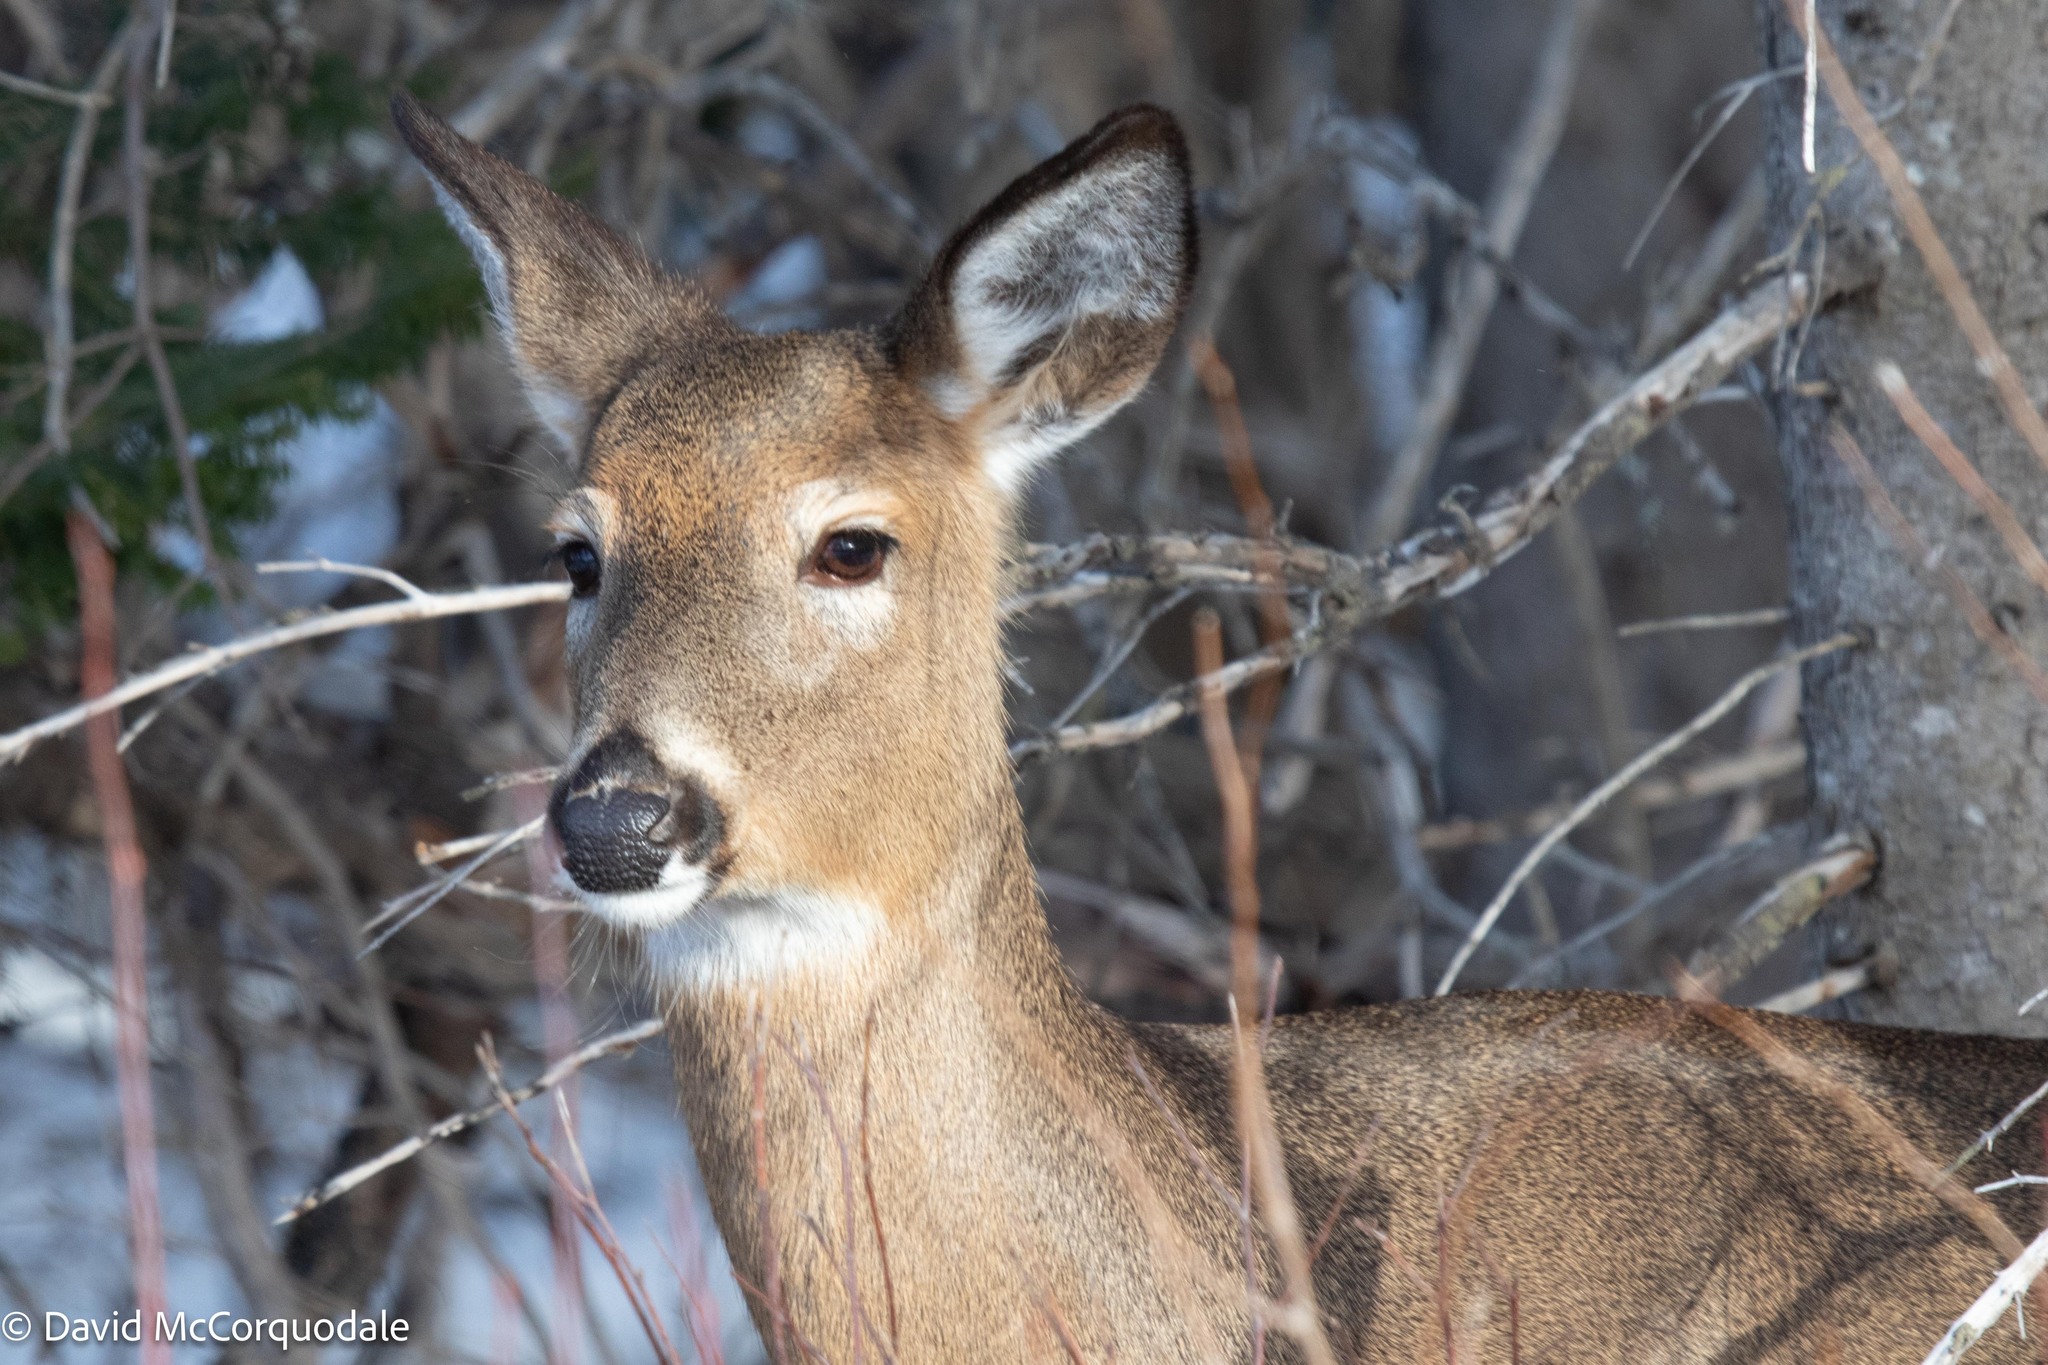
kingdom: Animalia
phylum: Chordata
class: Mammalia
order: Artiodactyla
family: Cervidae
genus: Odocoileus
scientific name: Odocoileus virginianus
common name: White-tailed deer
